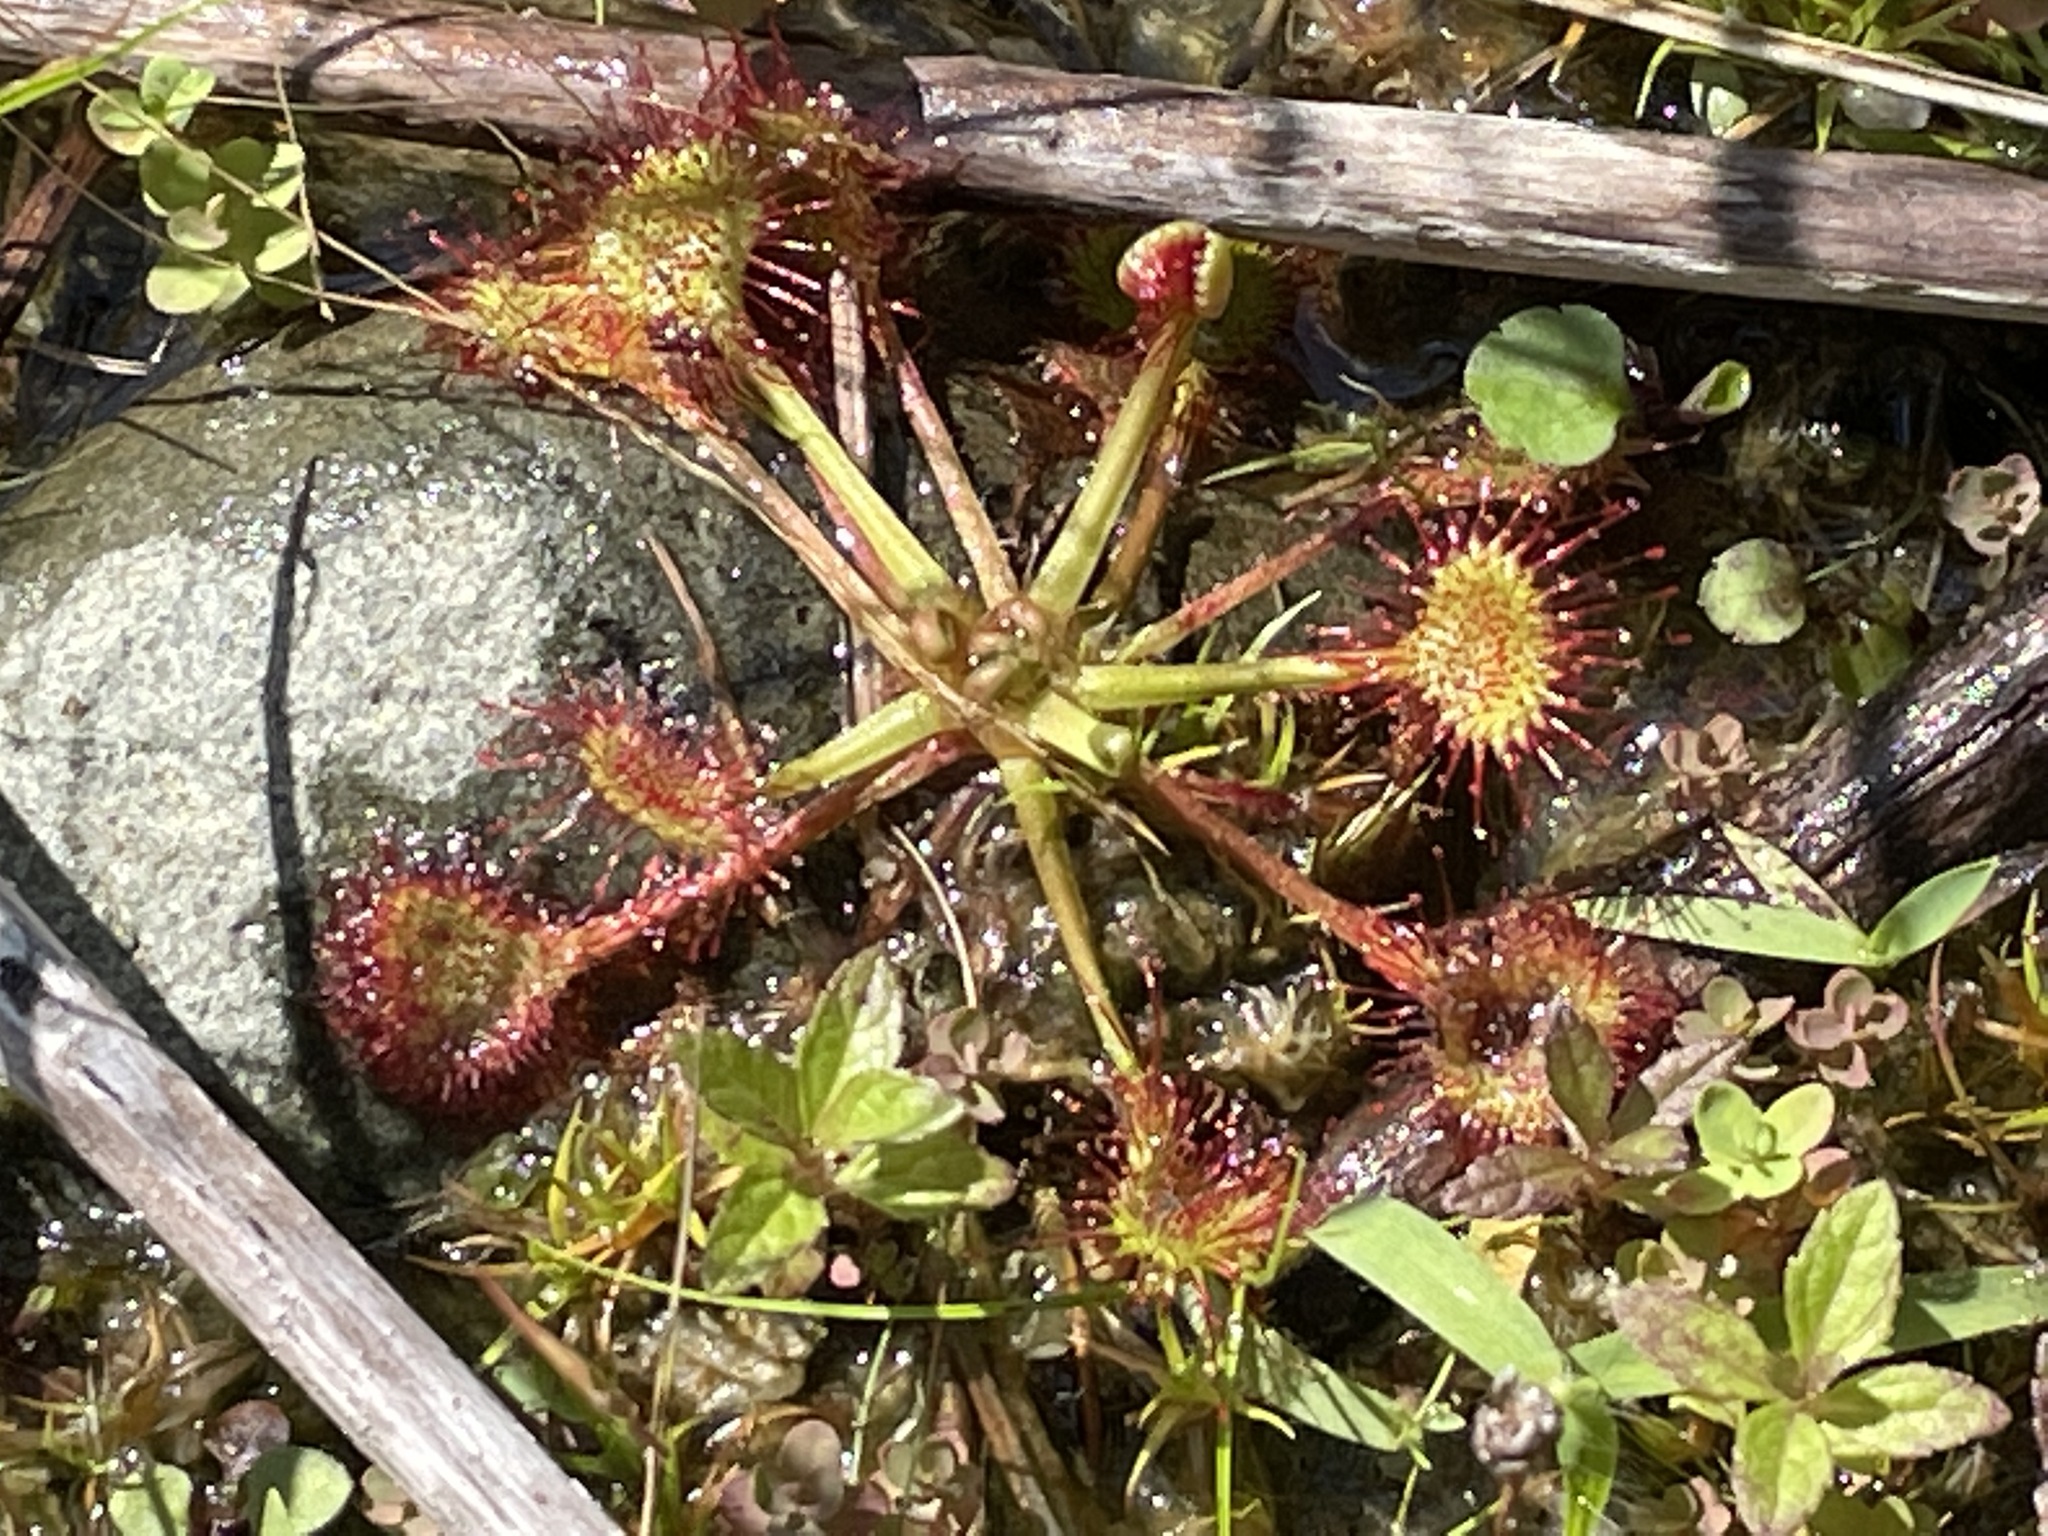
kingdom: Plantae
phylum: Tracheophyta
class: Magnoliopsida
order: Caryophyllales
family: Droseraceae
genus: Drosera
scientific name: Drosera rotundifolia
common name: Round-leaved sundew
